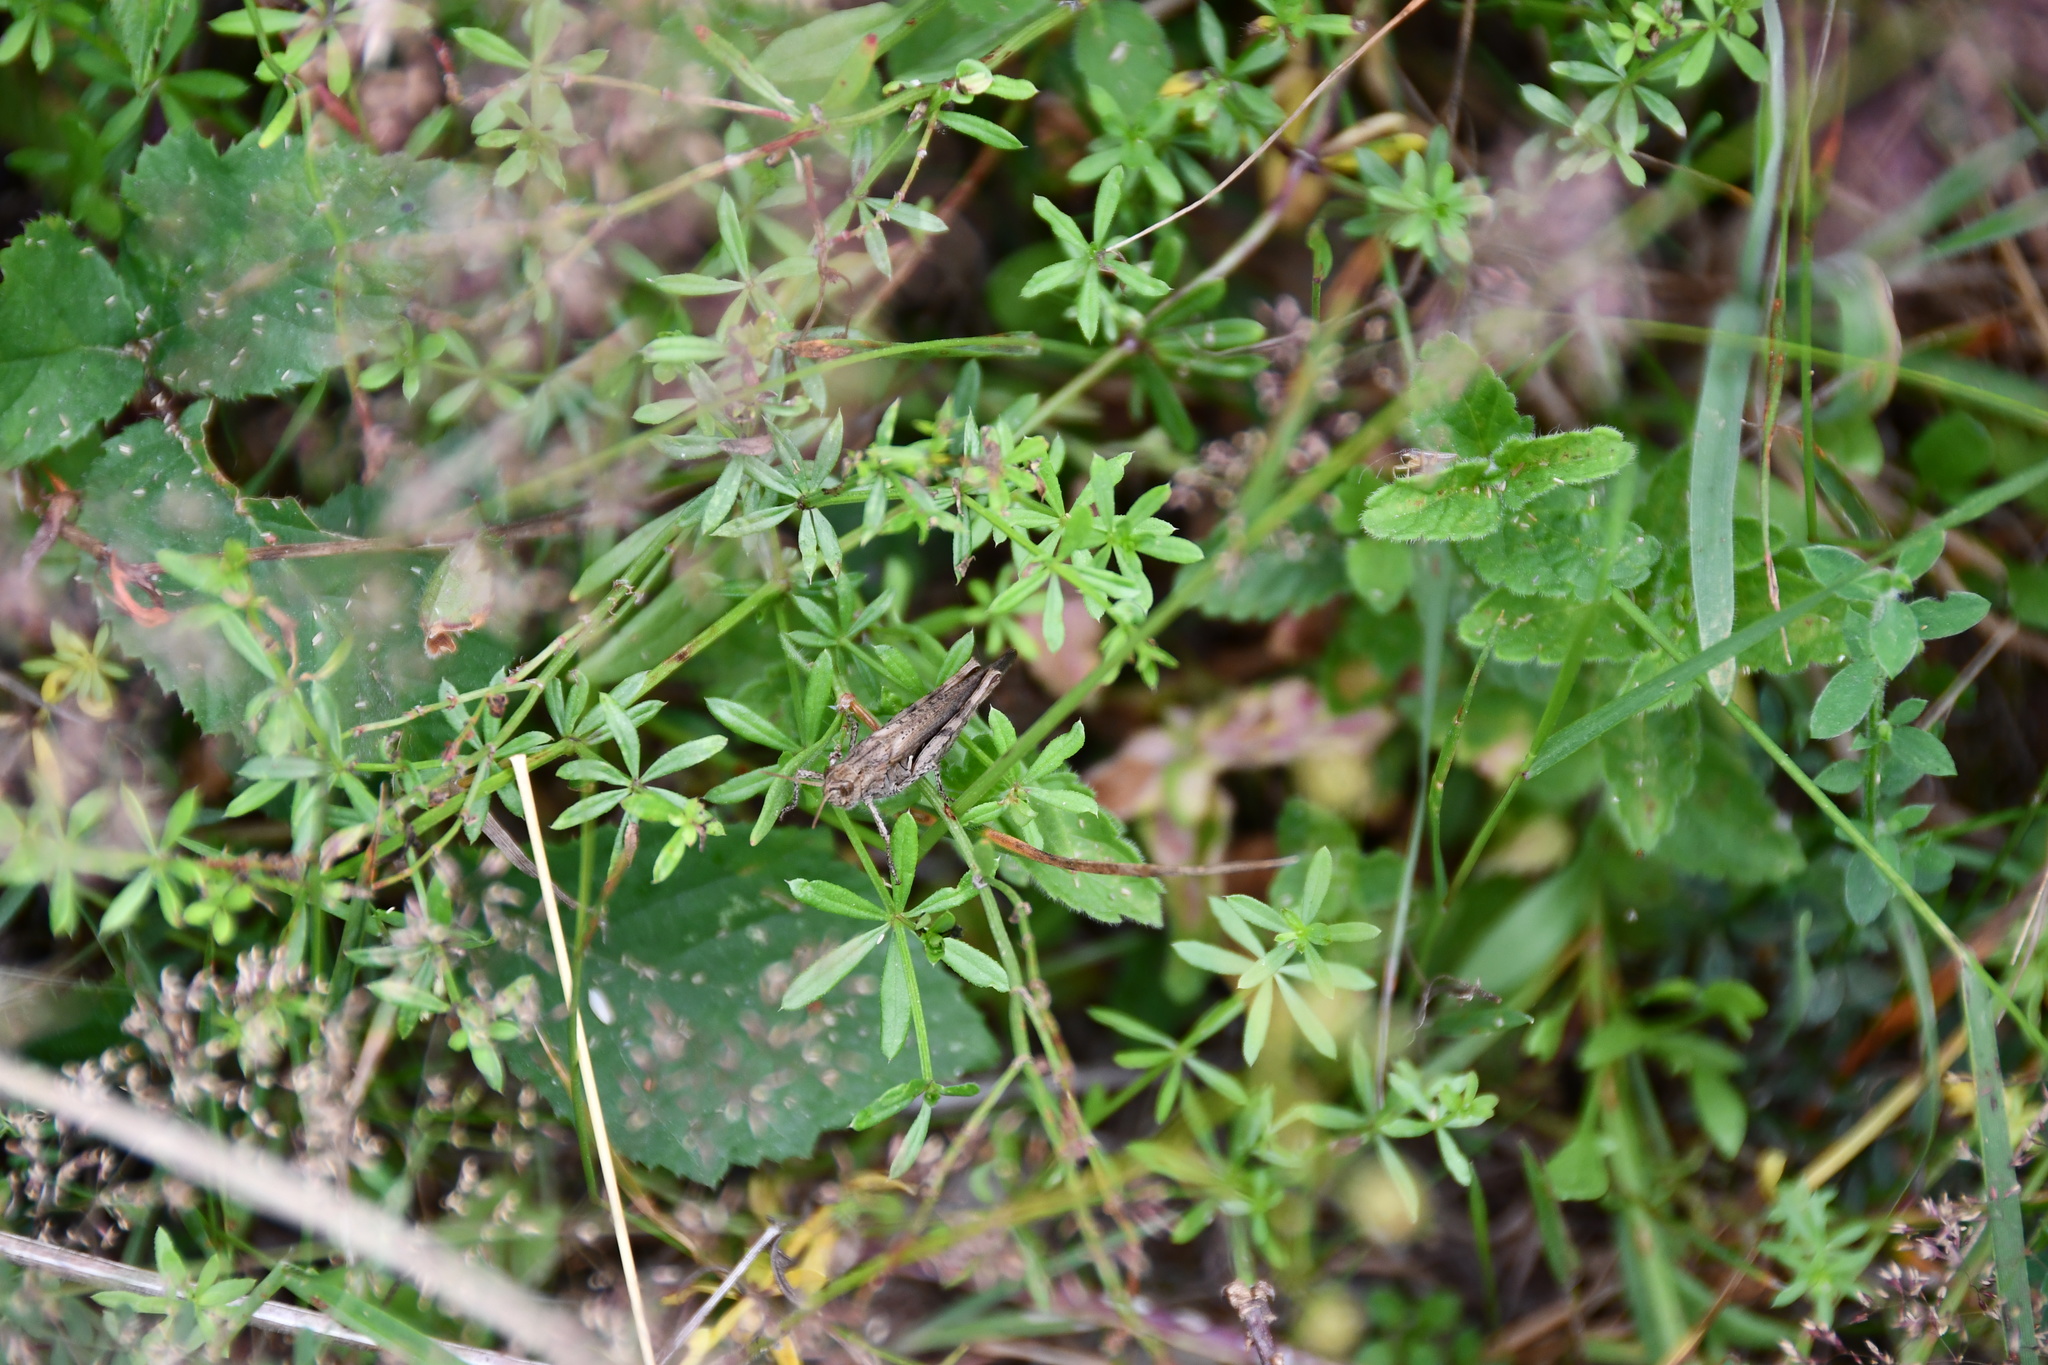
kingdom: Animalia
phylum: Arthropoda
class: Insecta
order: Orthoptera
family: Acrididae
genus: Glyptobothrus
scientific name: Glyptobothrus
